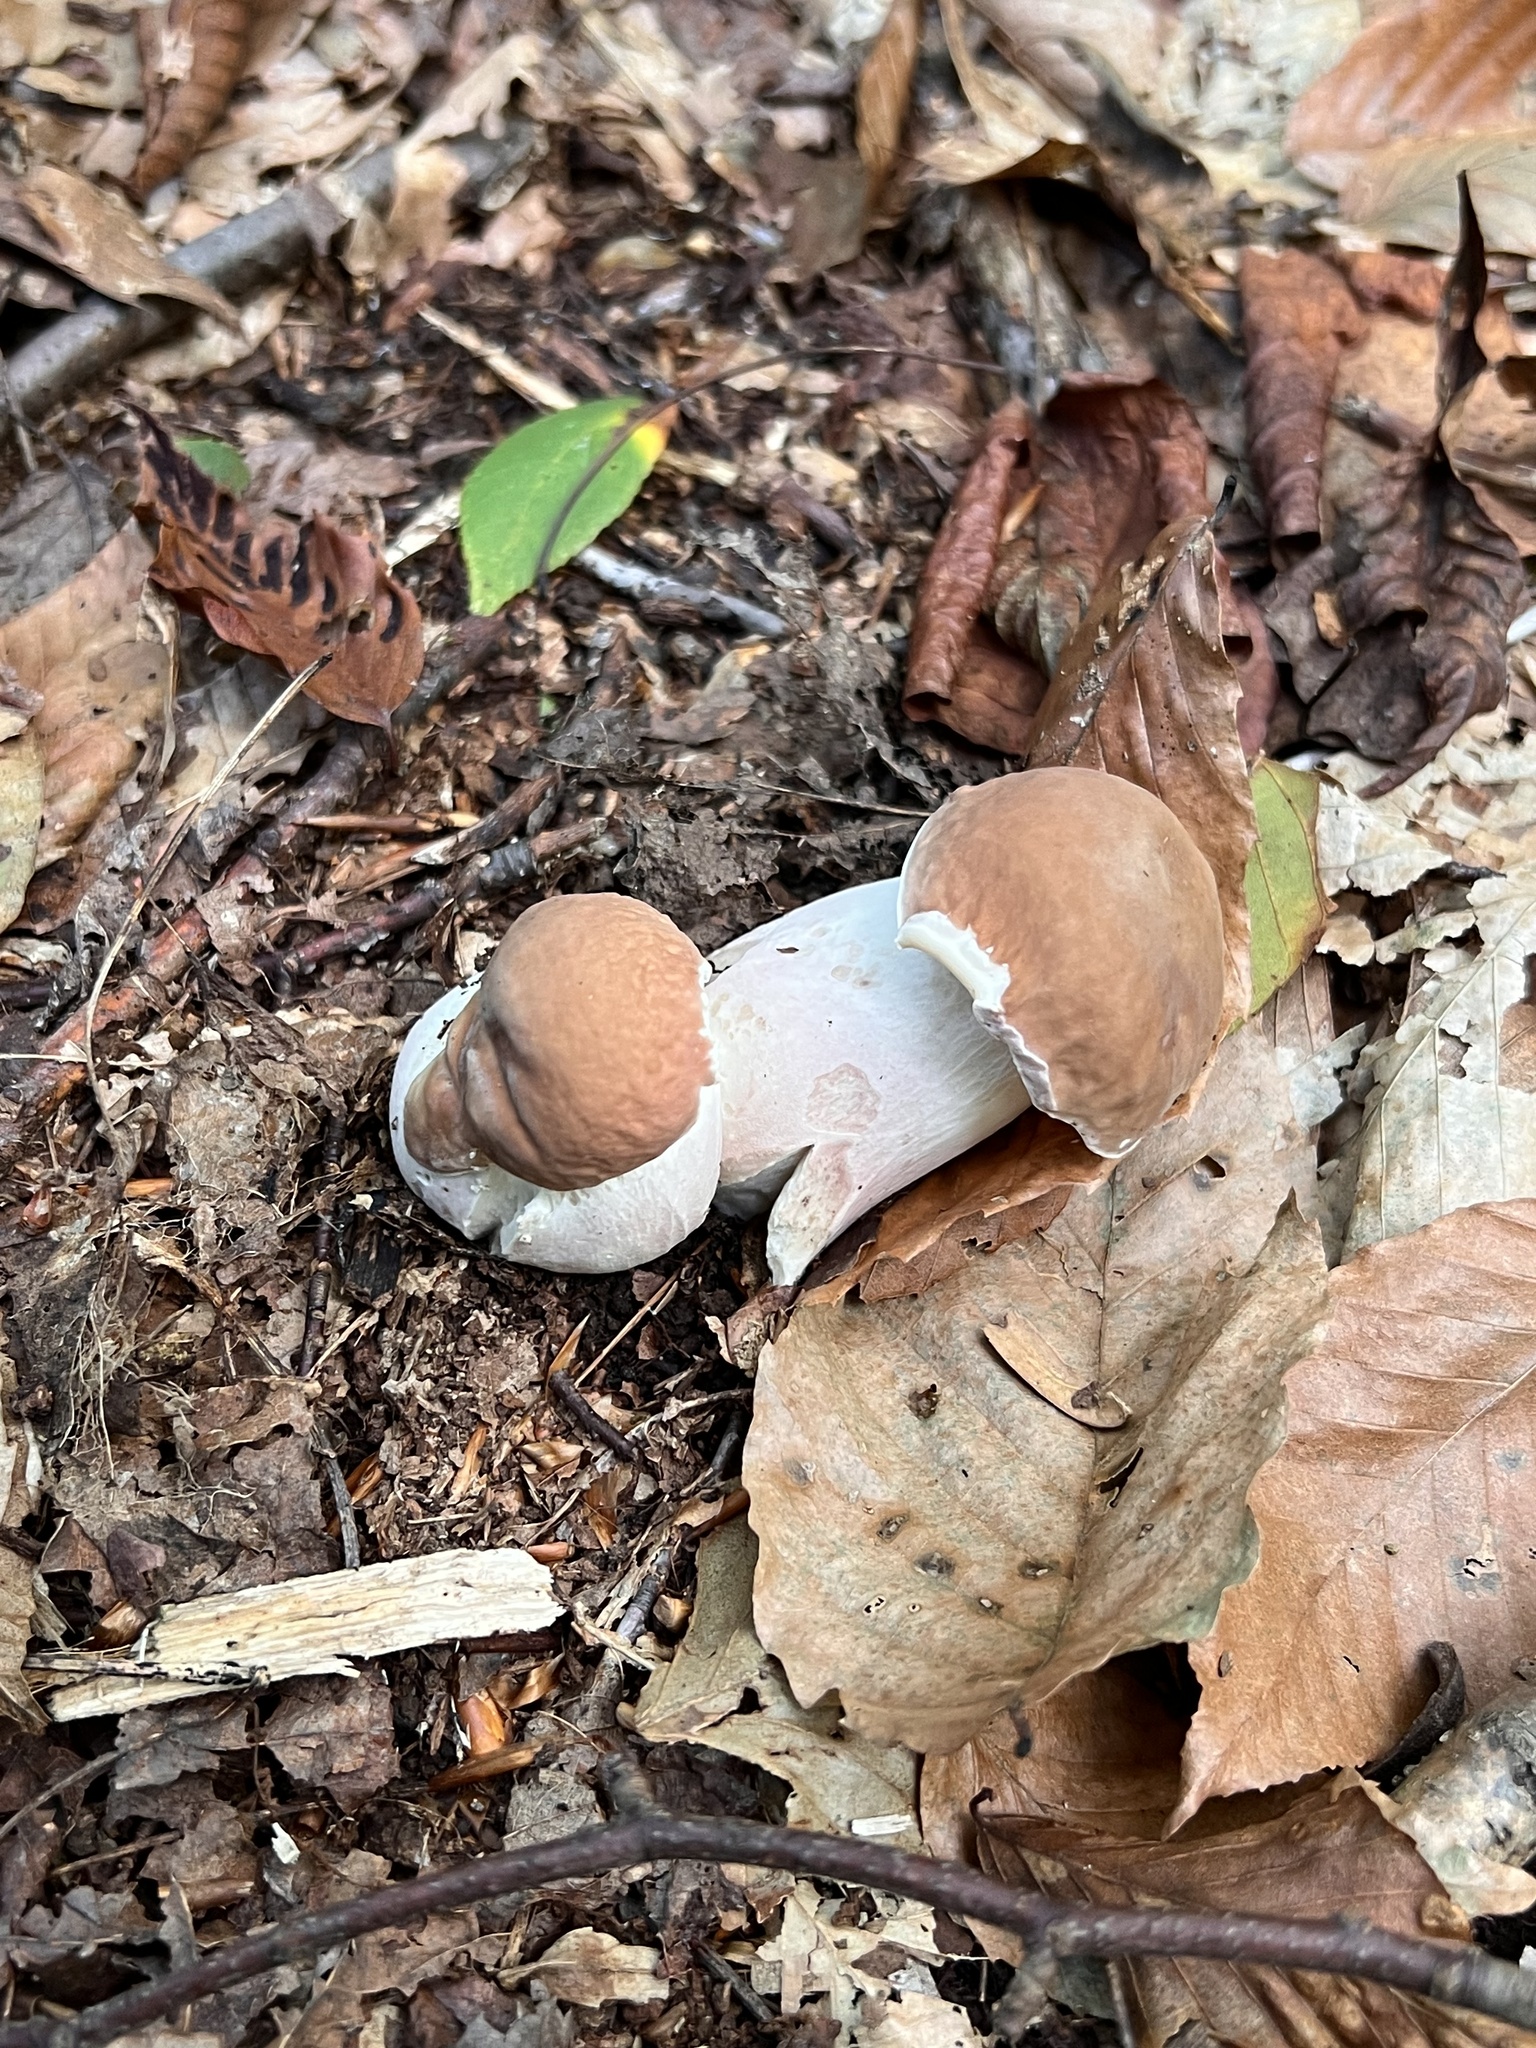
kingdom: Fungi
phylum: Basidiomycota
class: Agaricomycetes
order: Boletales
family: Boletaceae
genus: Xanthoconium
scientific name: Xanthoconium separans
